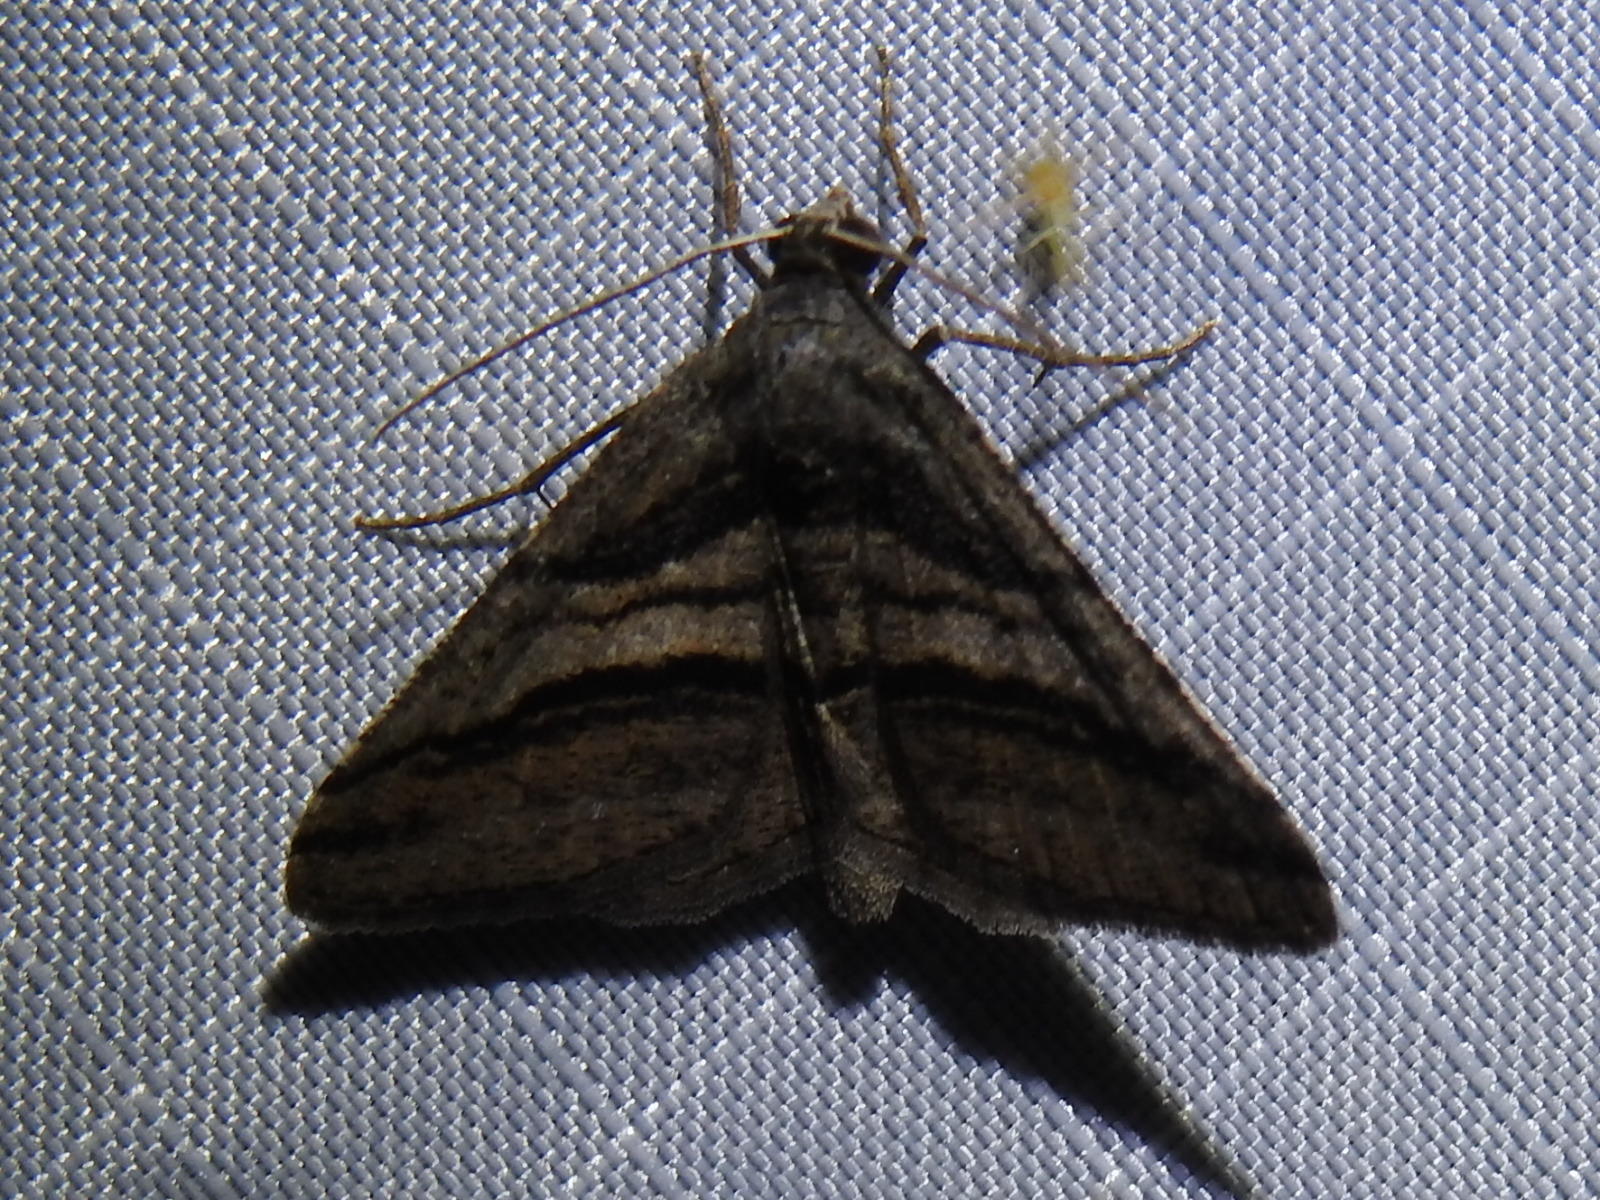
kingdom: Animalia
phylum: Arthropoda
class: Insecta
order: Lepidoptera
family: Geometridae
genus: Digrammia
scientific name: Digrammia atrofasciata
